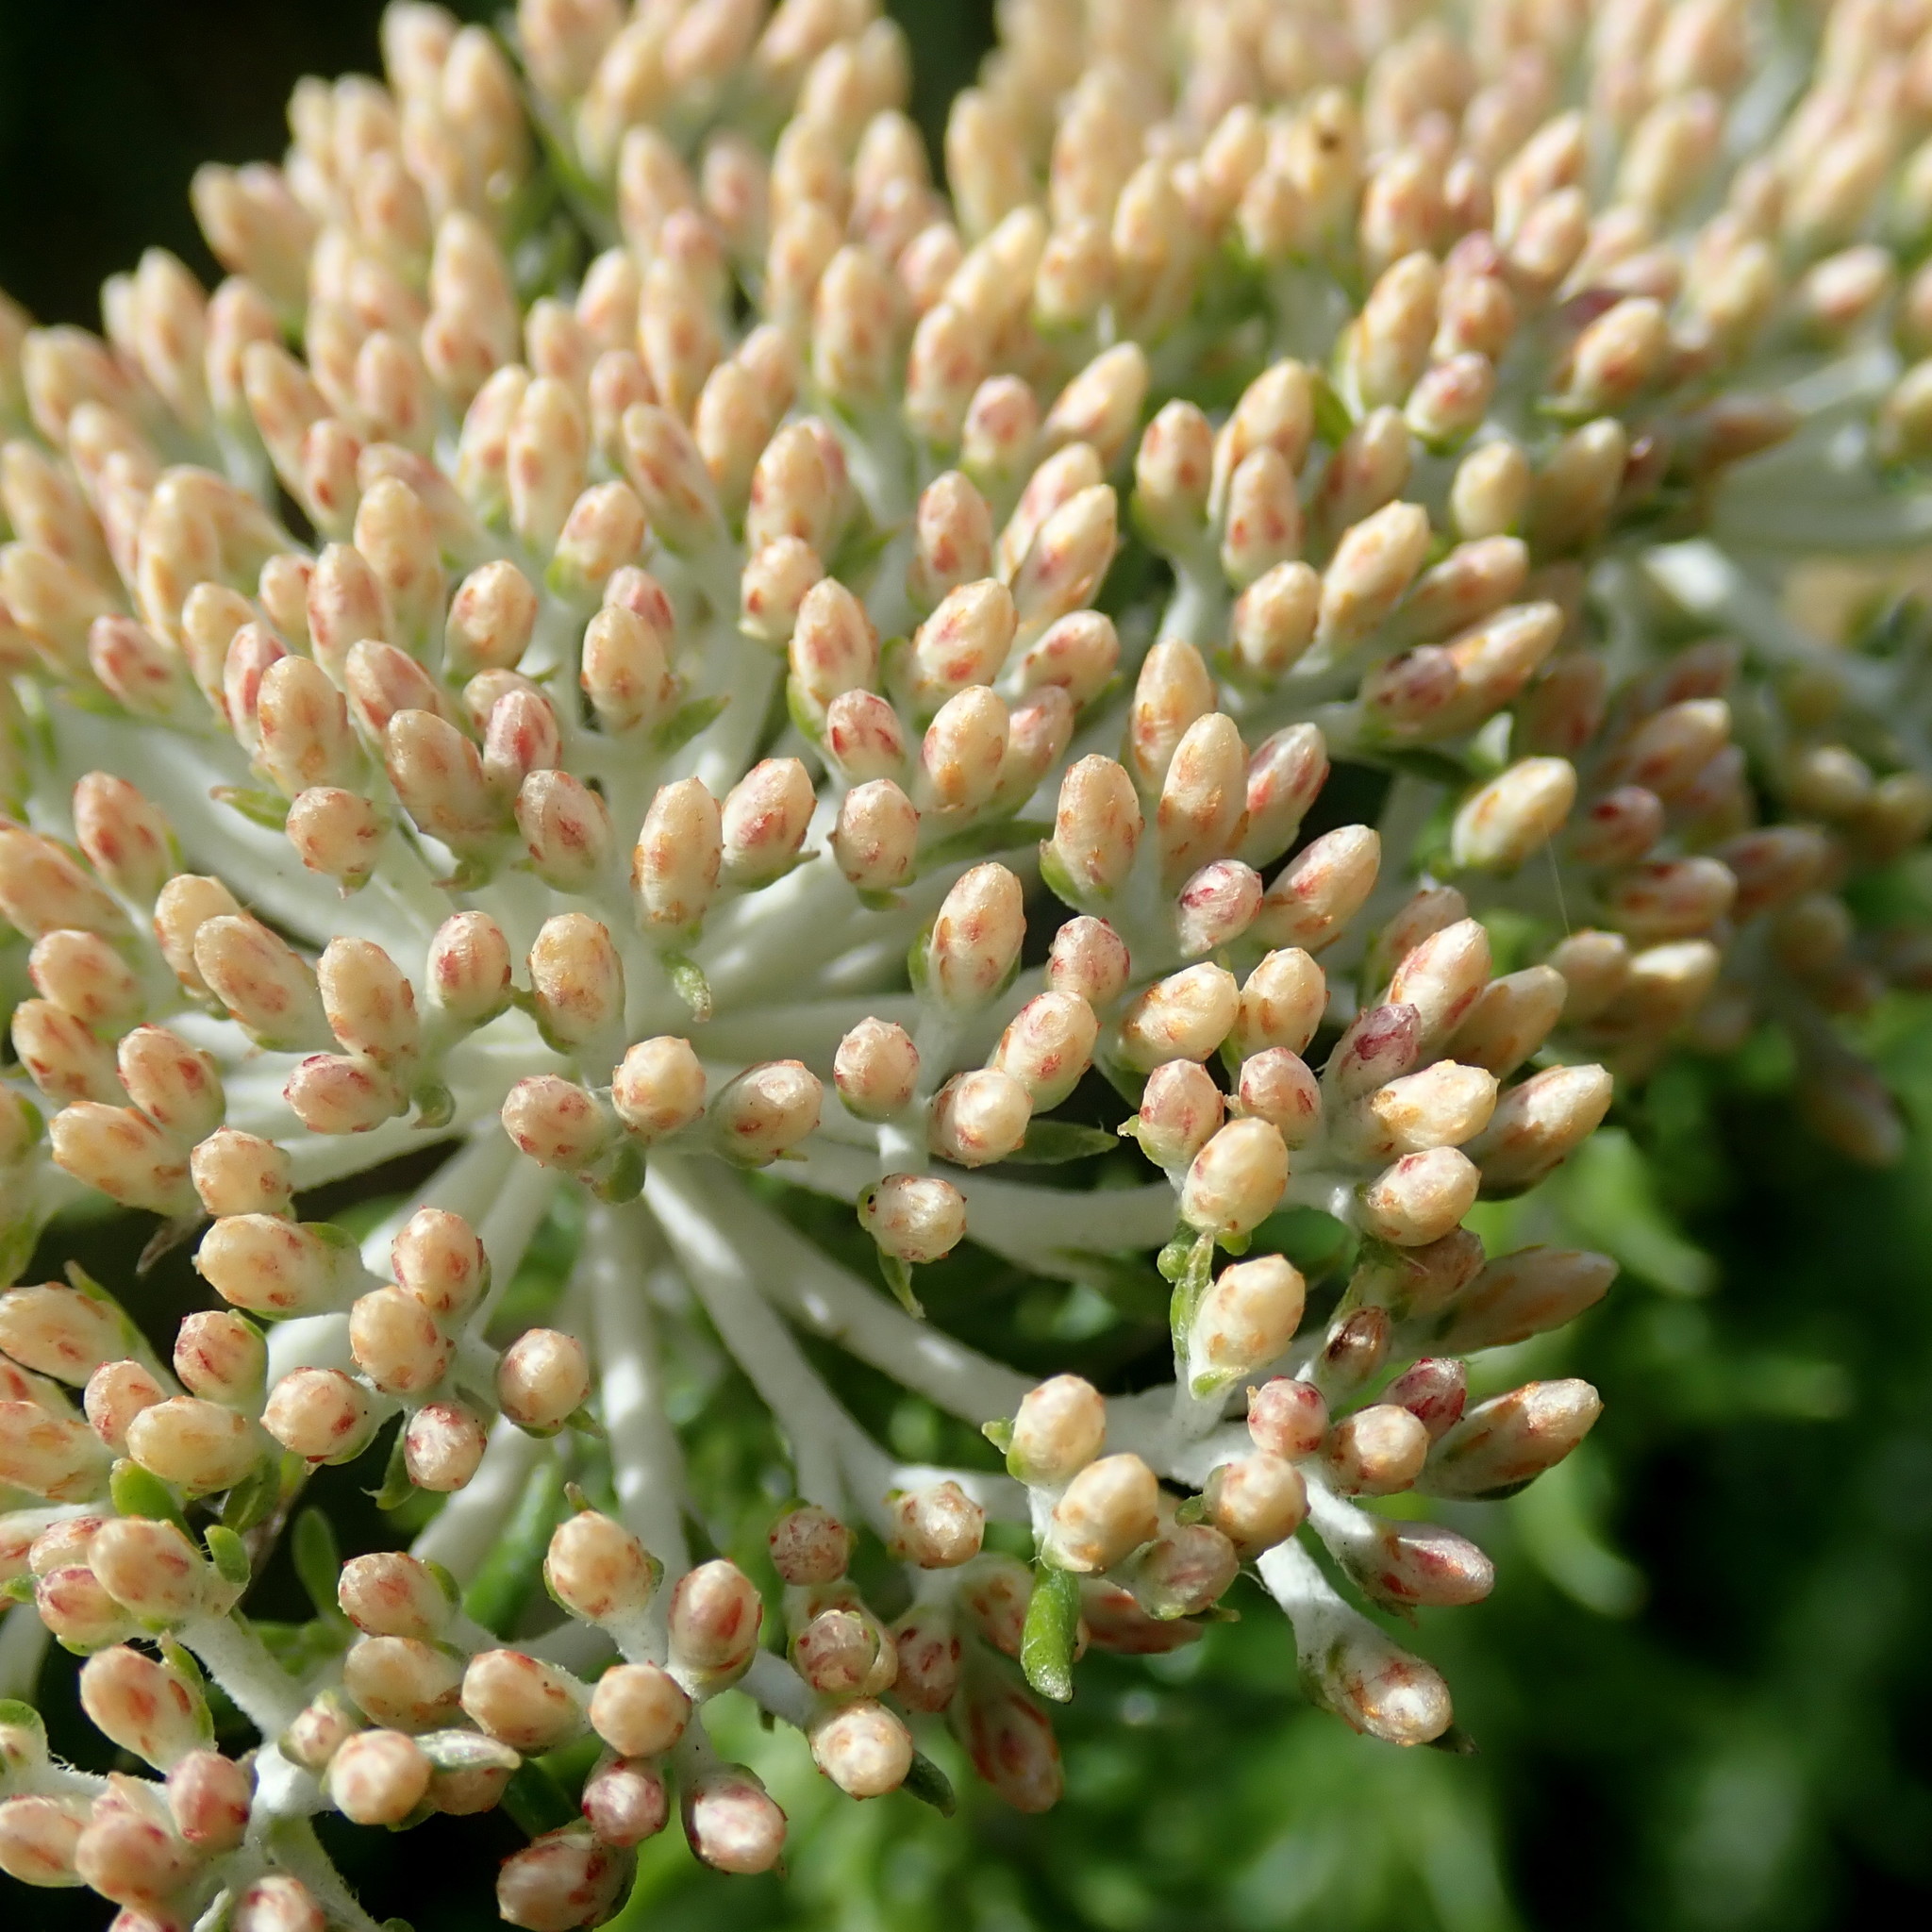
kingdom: Plantae
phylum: Tracheophyta
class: Magnoliopsida
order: Asterales
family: Asteraceae
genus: Metalasia
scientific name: Metalasia muricata
